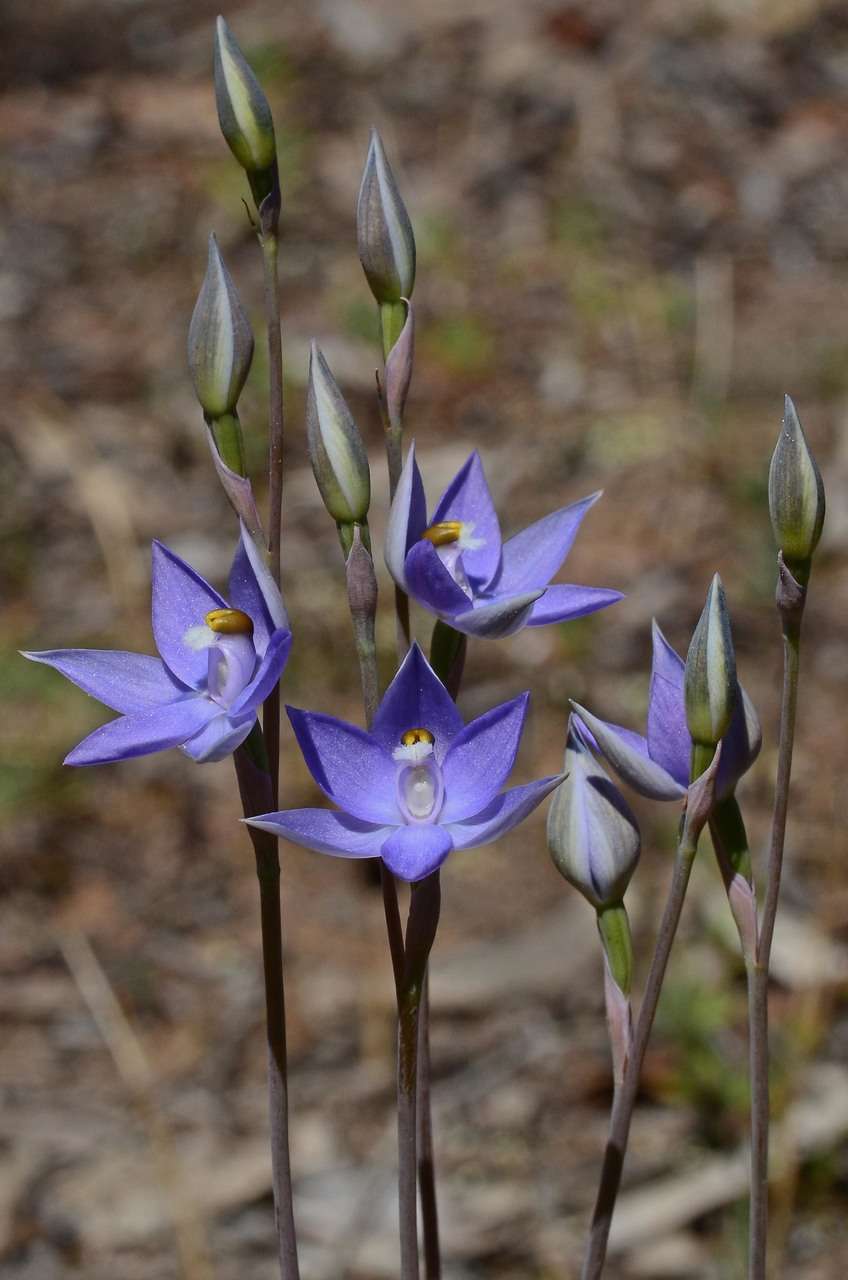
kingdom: Plantae
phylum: Tracheophyta
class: Liliopsida
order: Asparagales
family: Orchidaceae
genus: Thelymitra
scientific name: Thelymitra alcockiae
